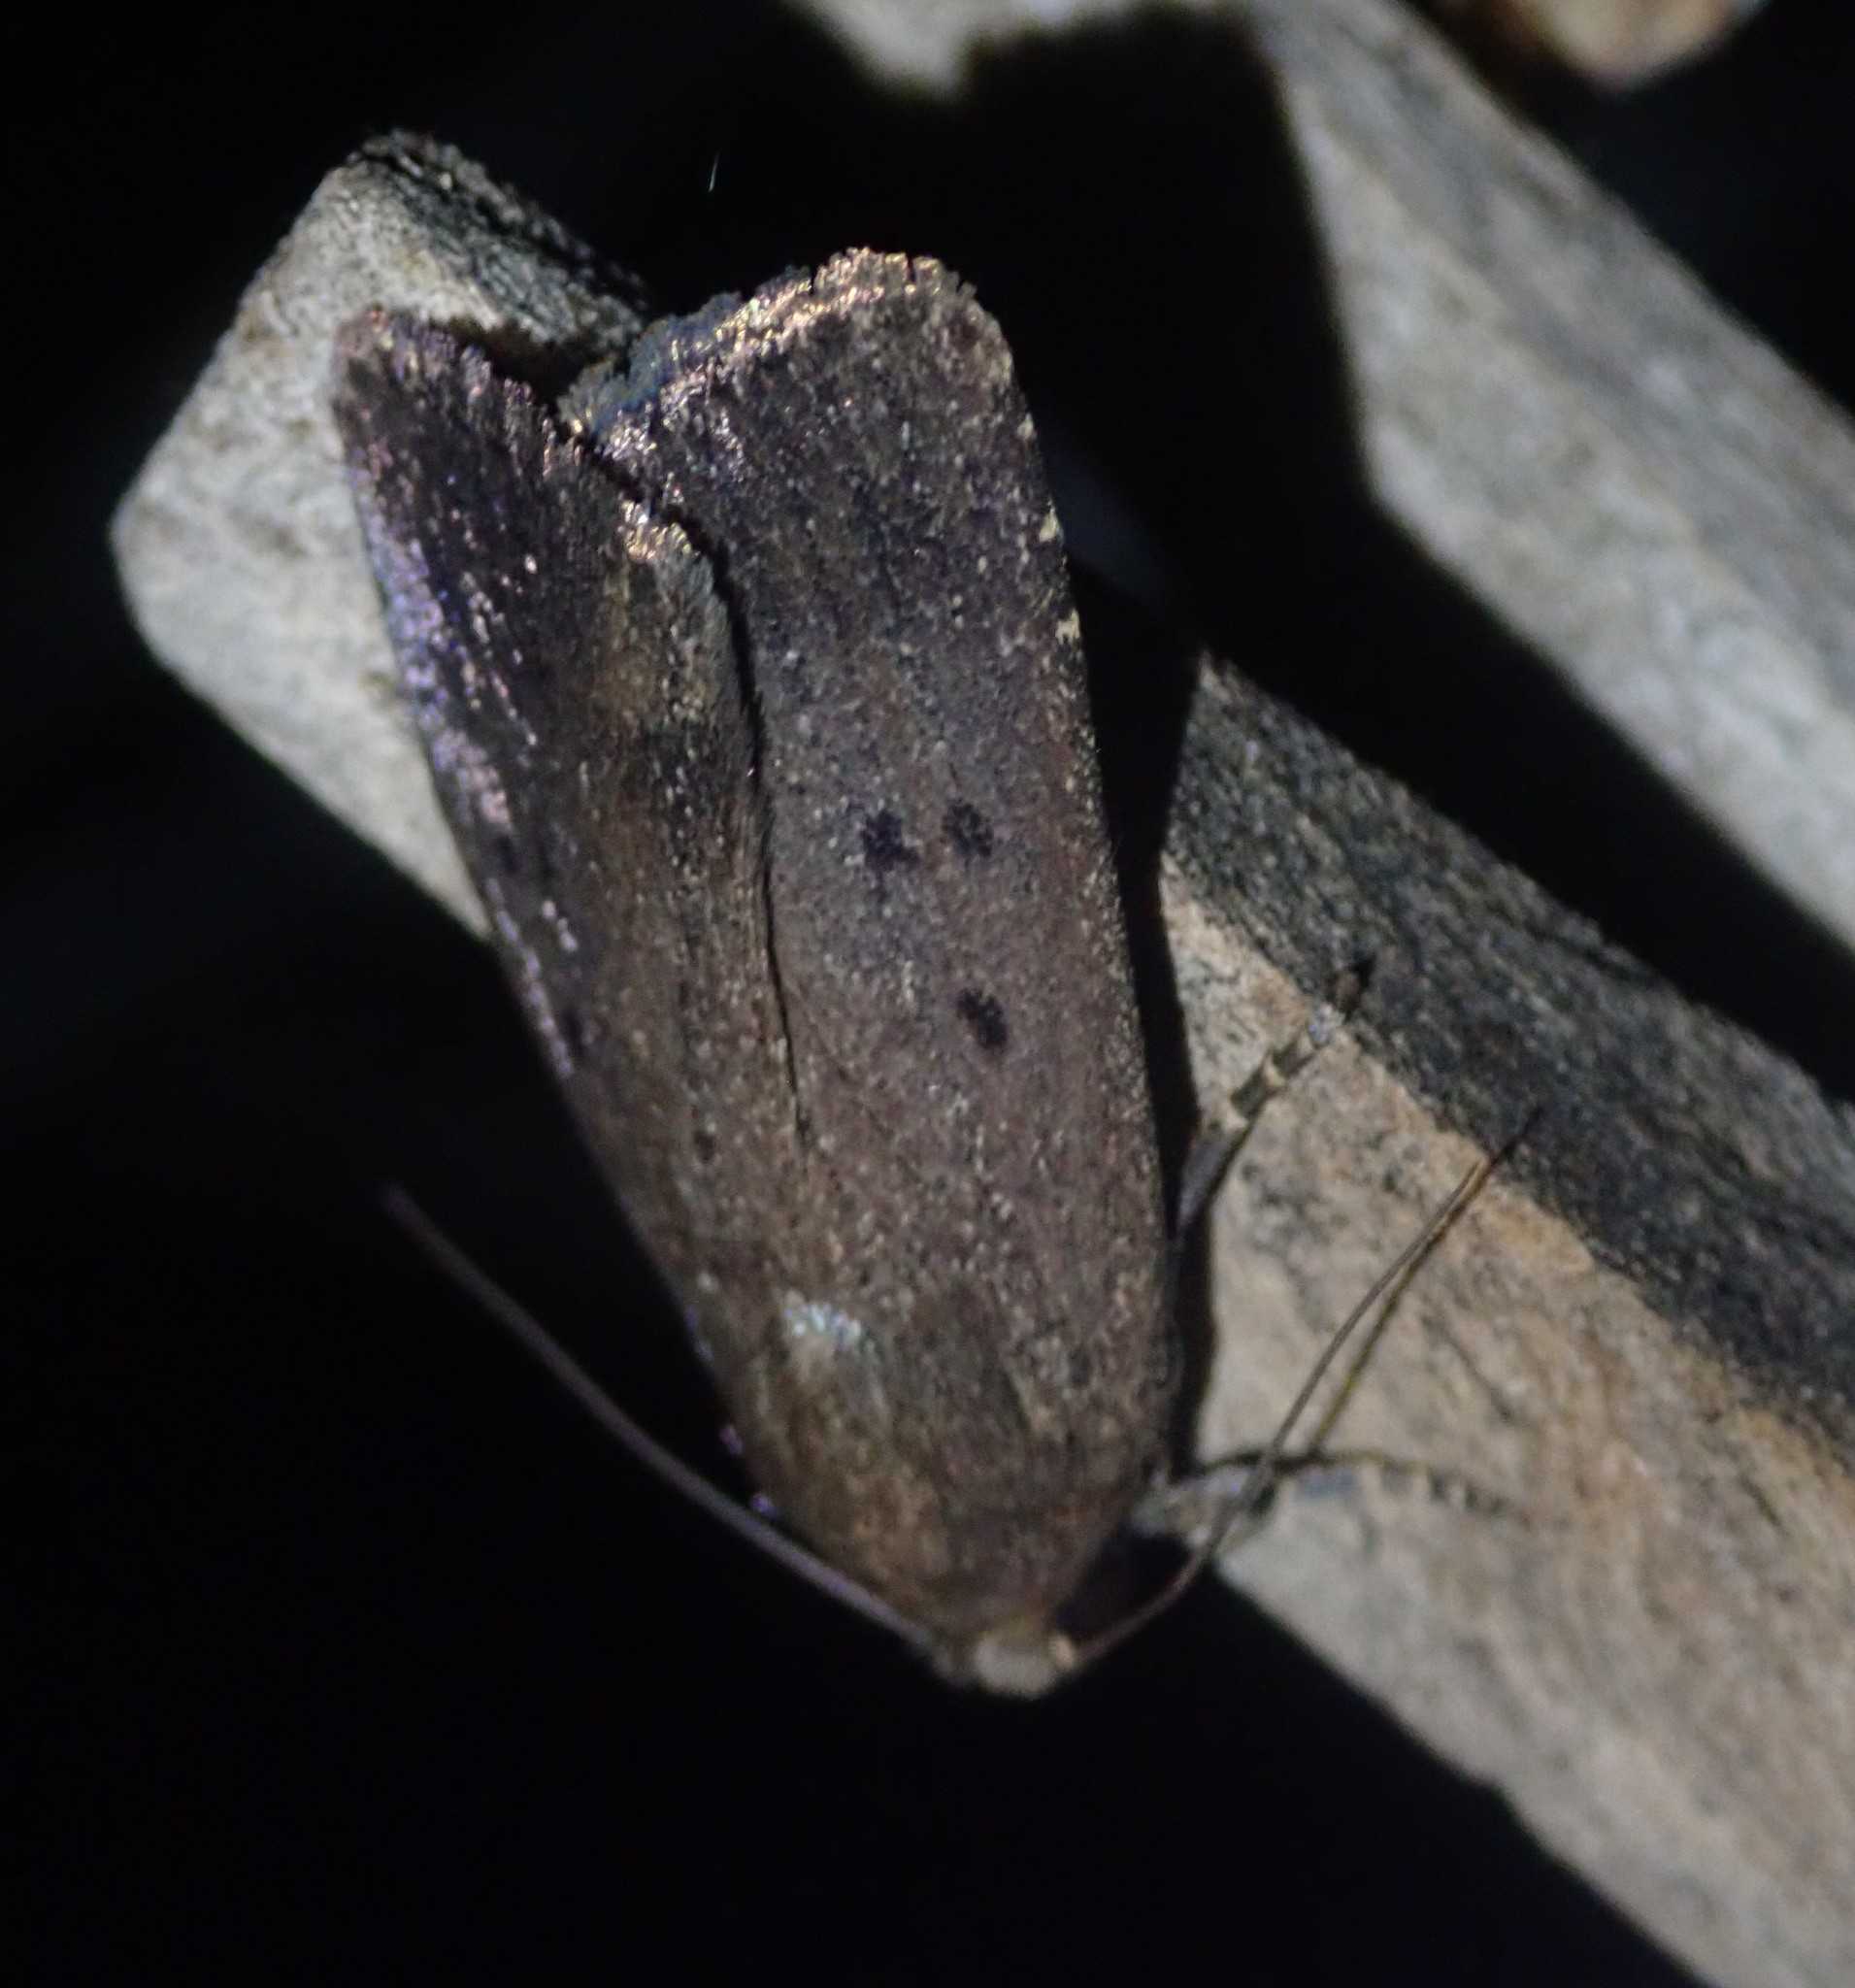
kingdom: Animalia
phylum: Arthropoda
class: Insecta
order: Lepidoptera
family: Noctuidae
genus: Amphipyra
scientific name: Amphipyra tragopoginis
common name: Mouse moth
